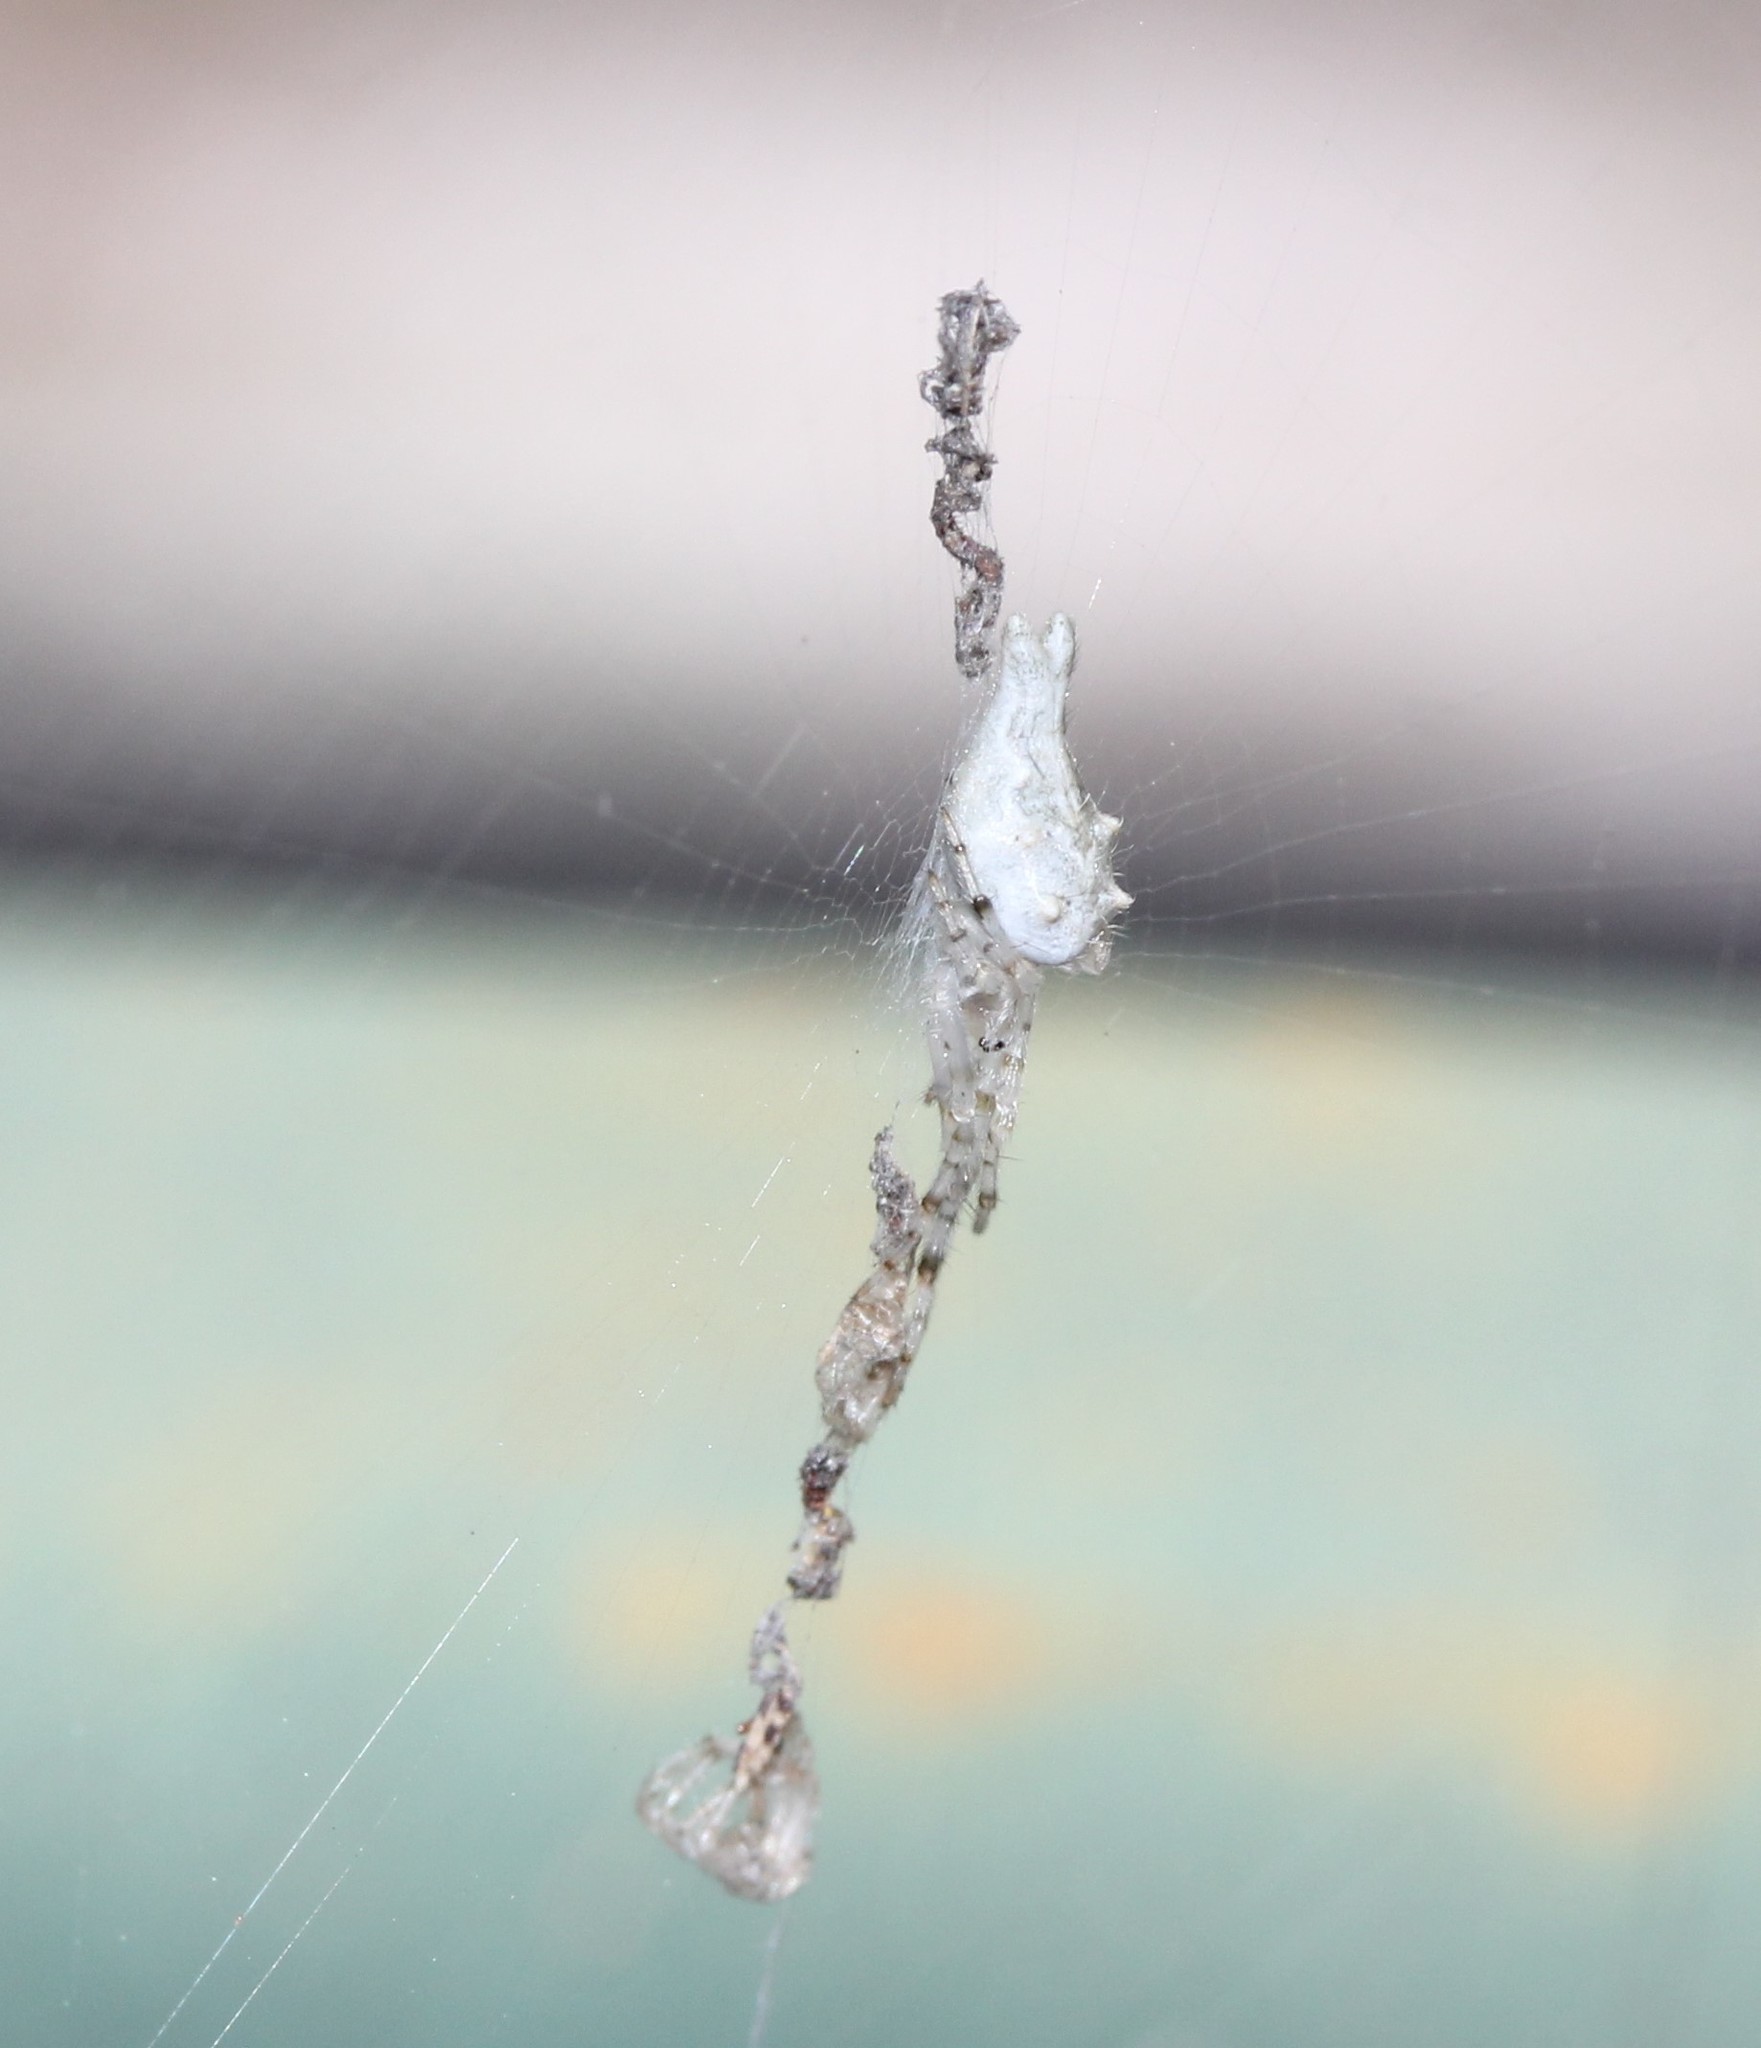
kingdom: Animalia
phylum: Arthropoda
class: Arachnida
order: Araneae
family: Araneidae
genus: Allocyclosa
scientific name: Allocyclosa bifurca
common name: Orb weavers
